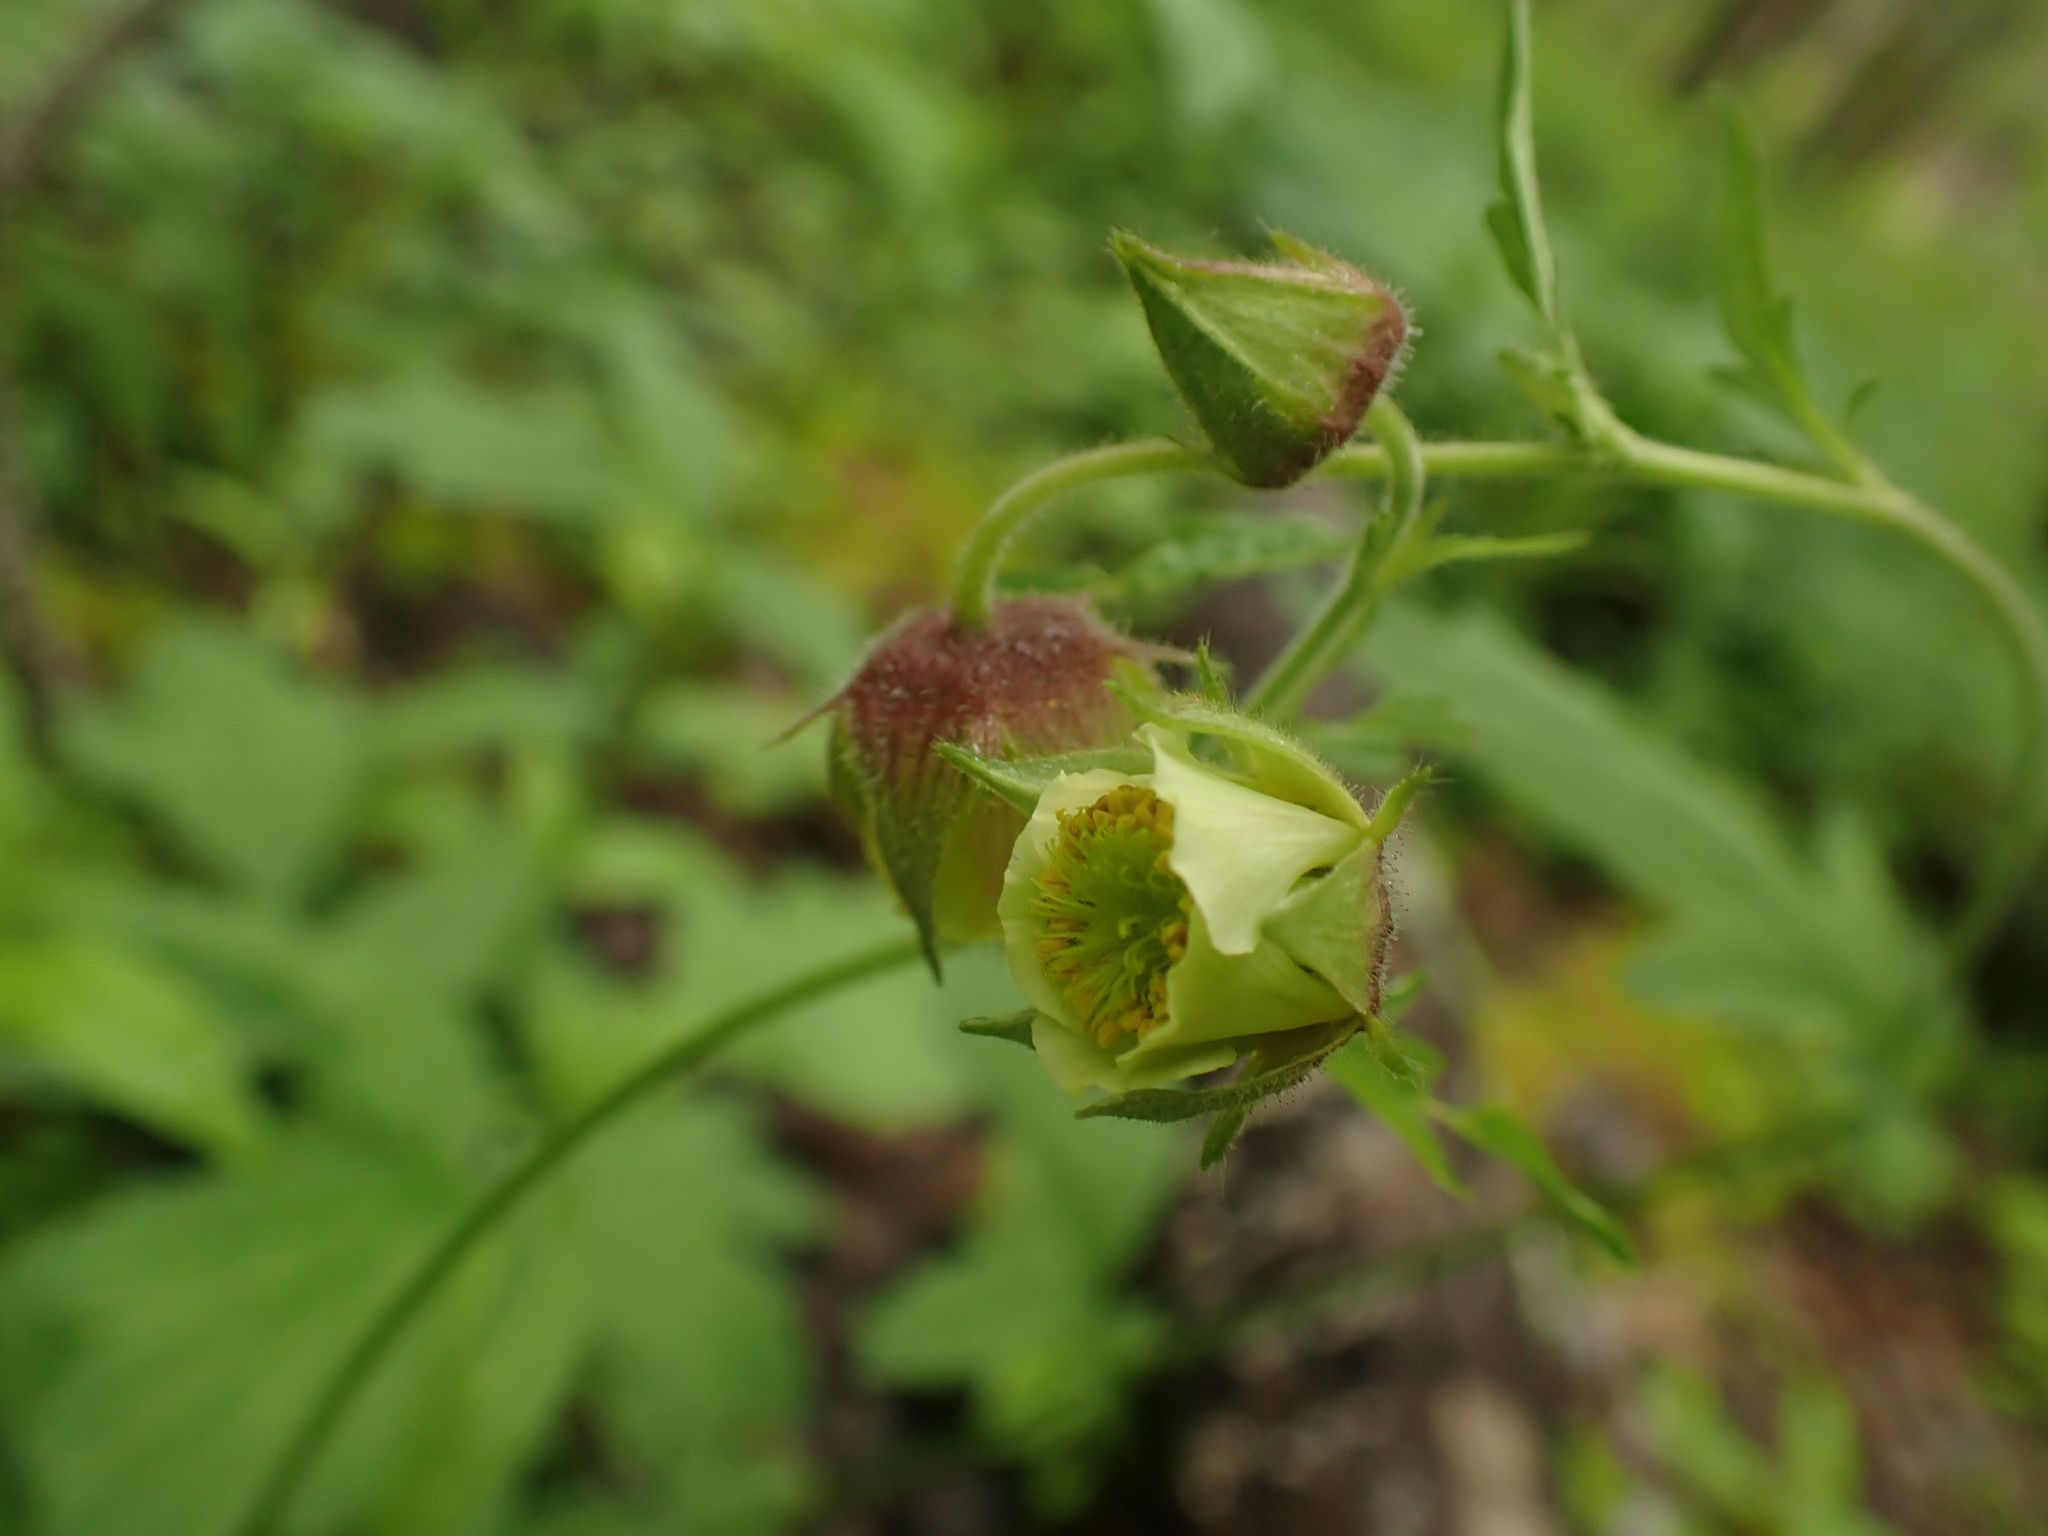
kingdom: Plantae
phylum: Tracheophyta
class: Magnoliopsida
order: Rosales
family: Rosaceae
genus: Geum
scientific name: Geum rivale
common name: Water avens
